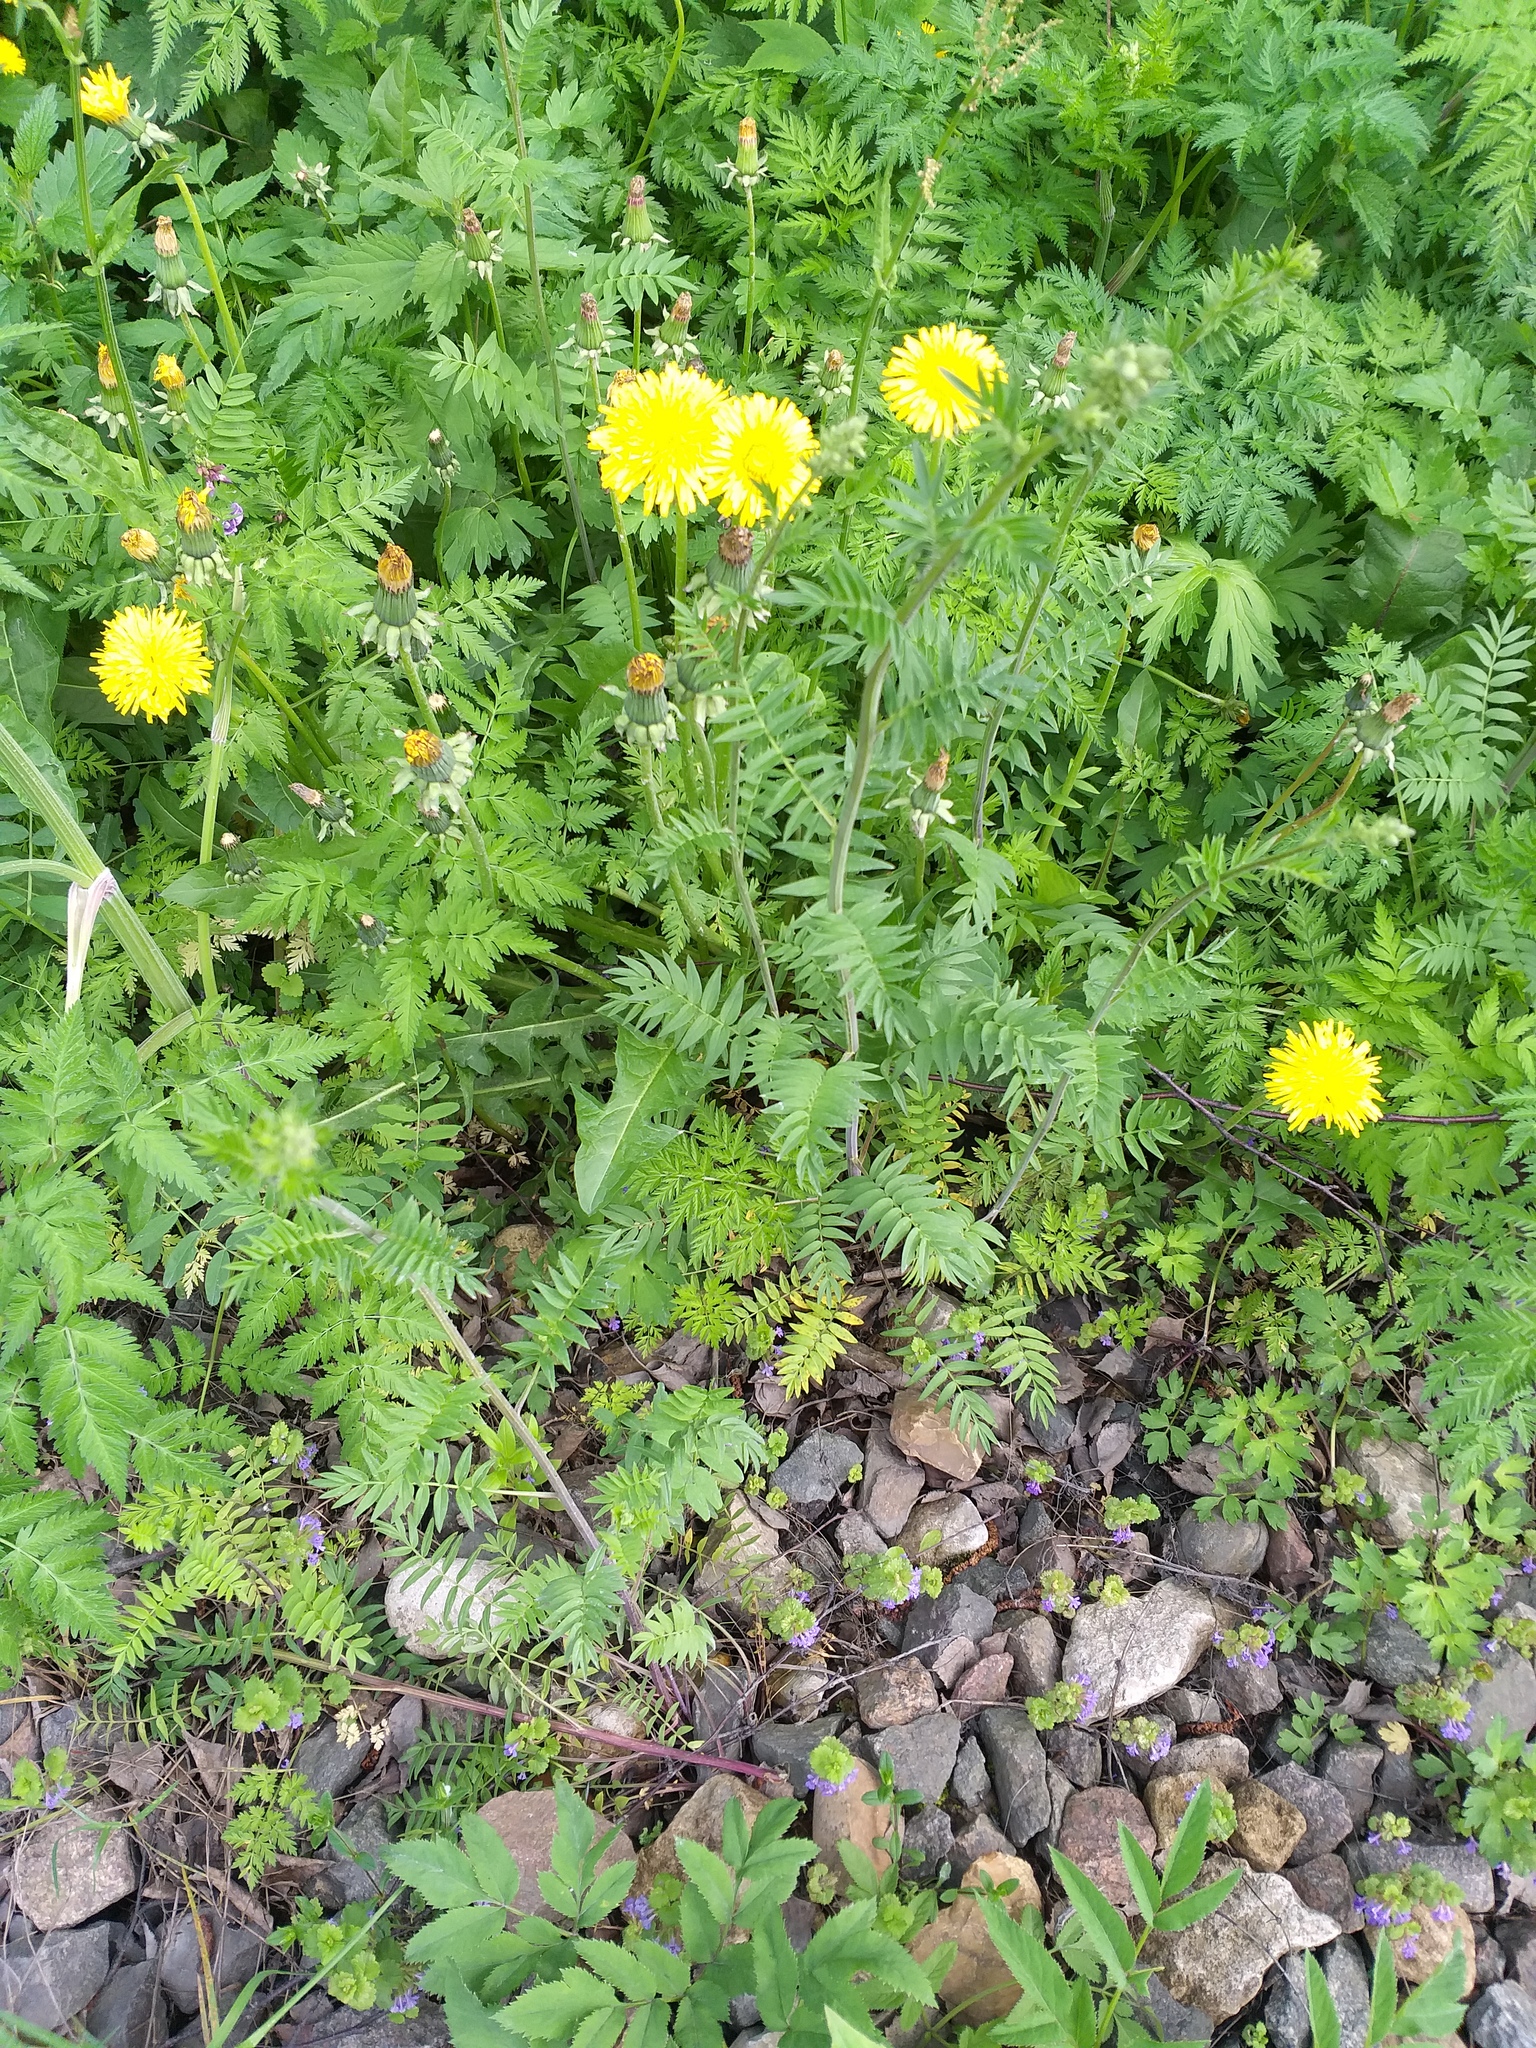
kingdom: Plantae
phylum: Tracheophyta
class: Magnoliopsida
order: Ericales
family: Polemoniaceae
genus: Polemonium
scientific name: Polemonium caeruleum
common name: Jacob's-ladder
